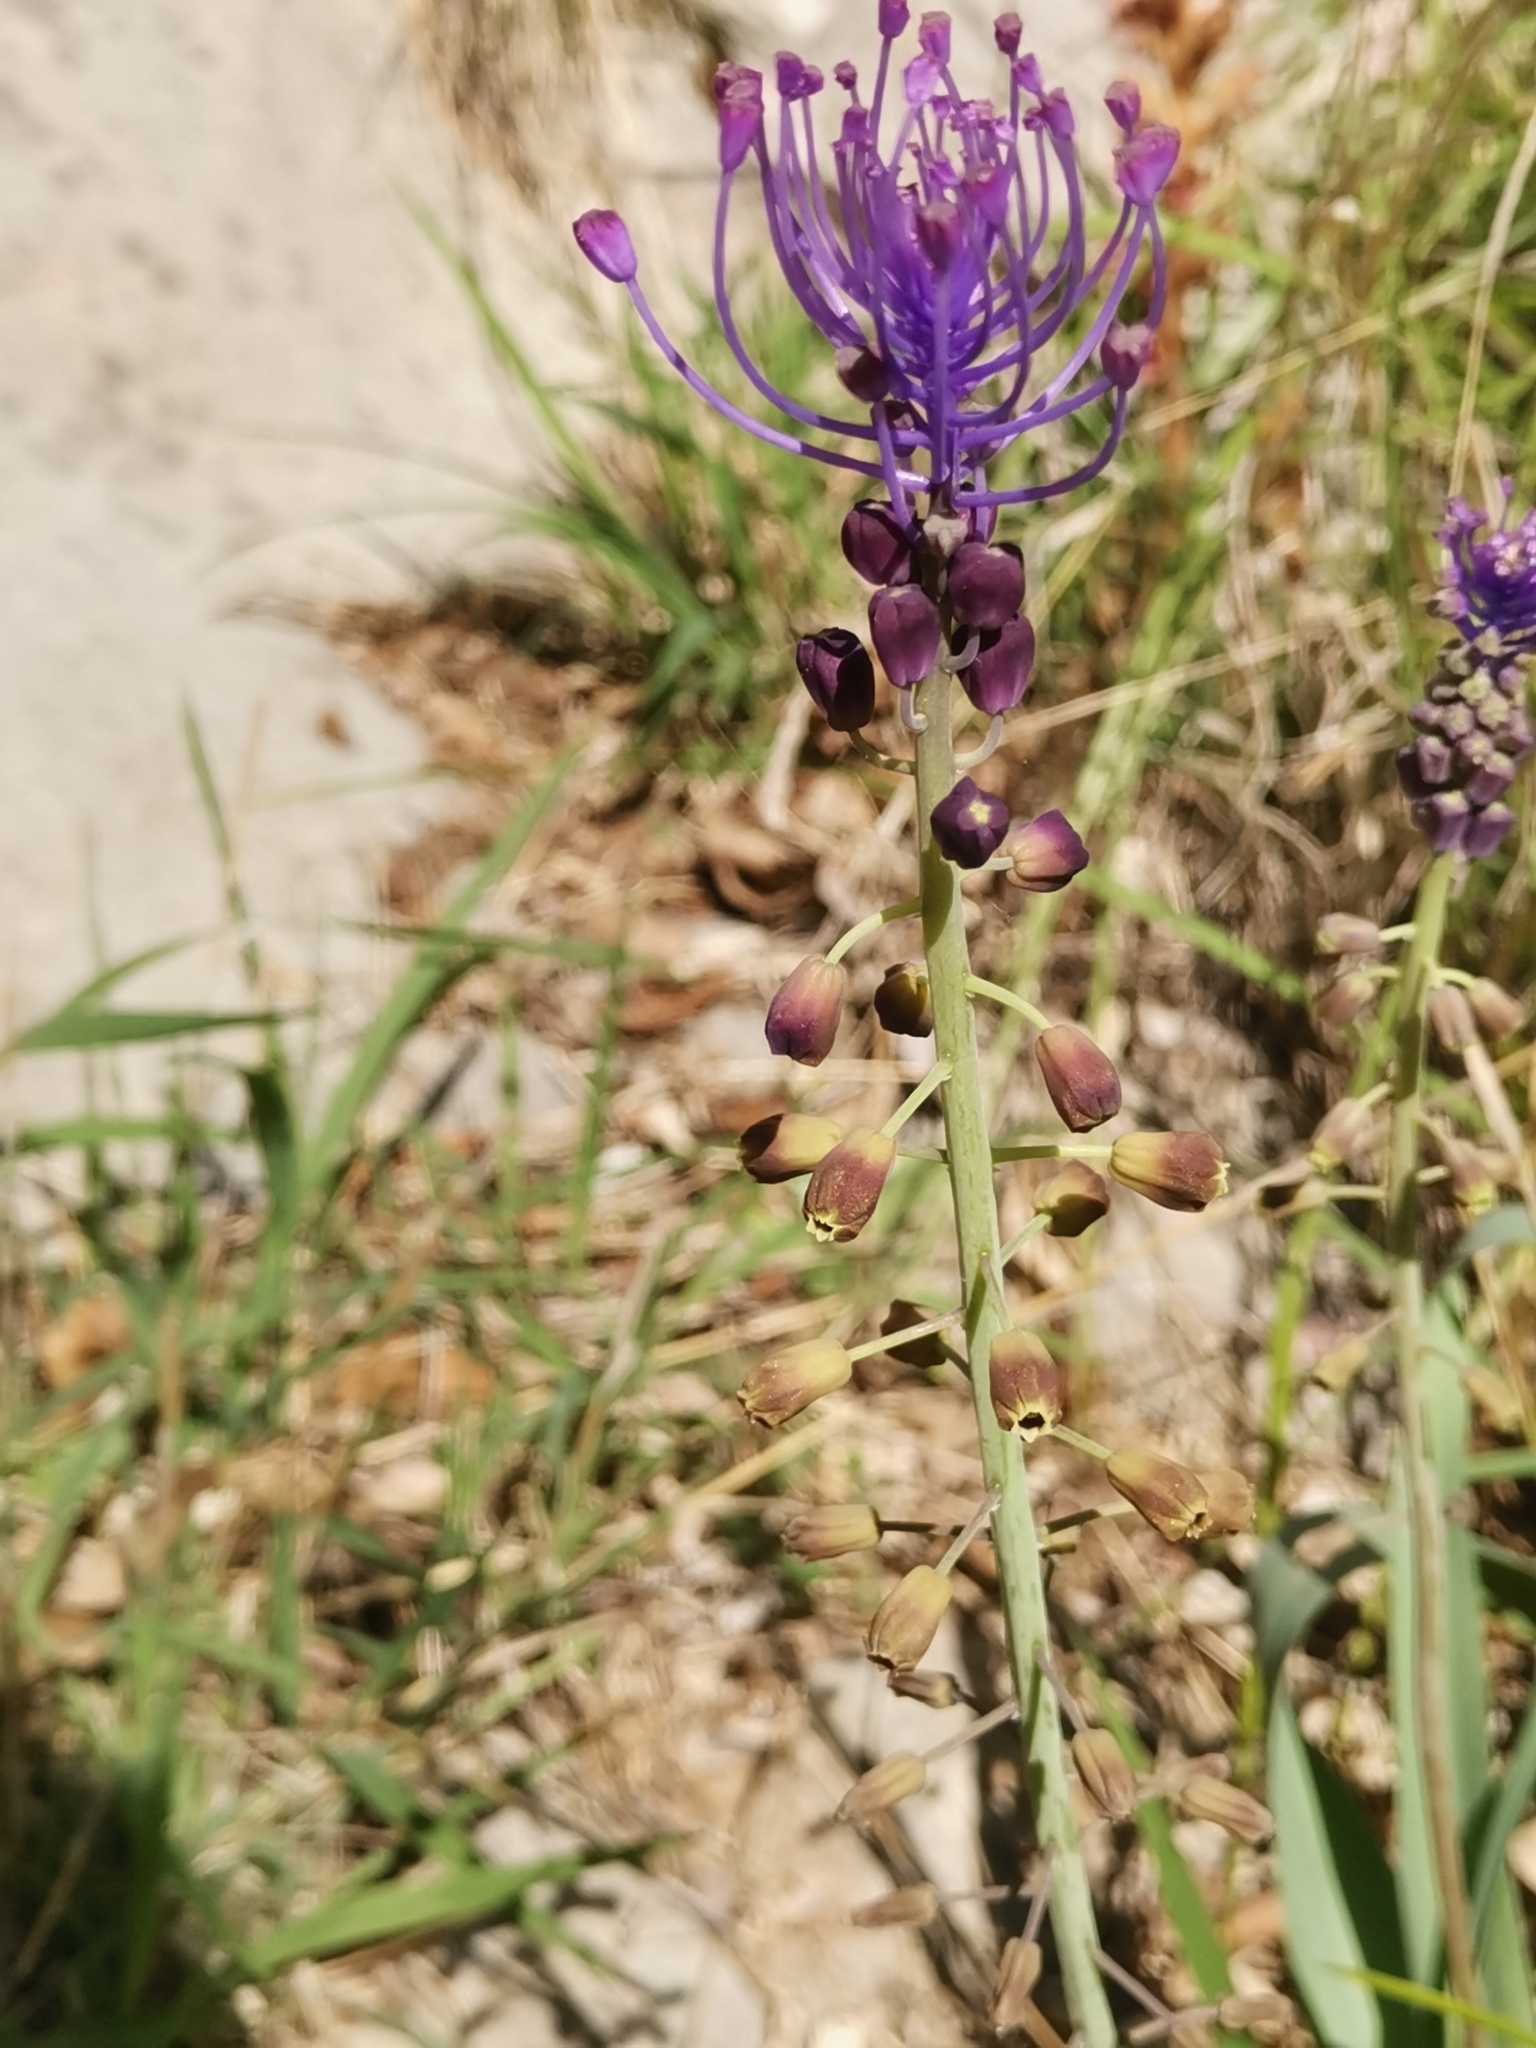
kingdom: Plantae
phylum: Tracheophyta
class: Liliopsida
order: Asparagales
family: Asparagaceae
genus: Muscari
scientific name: Muscari comosum
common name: Tassel hyacinth
